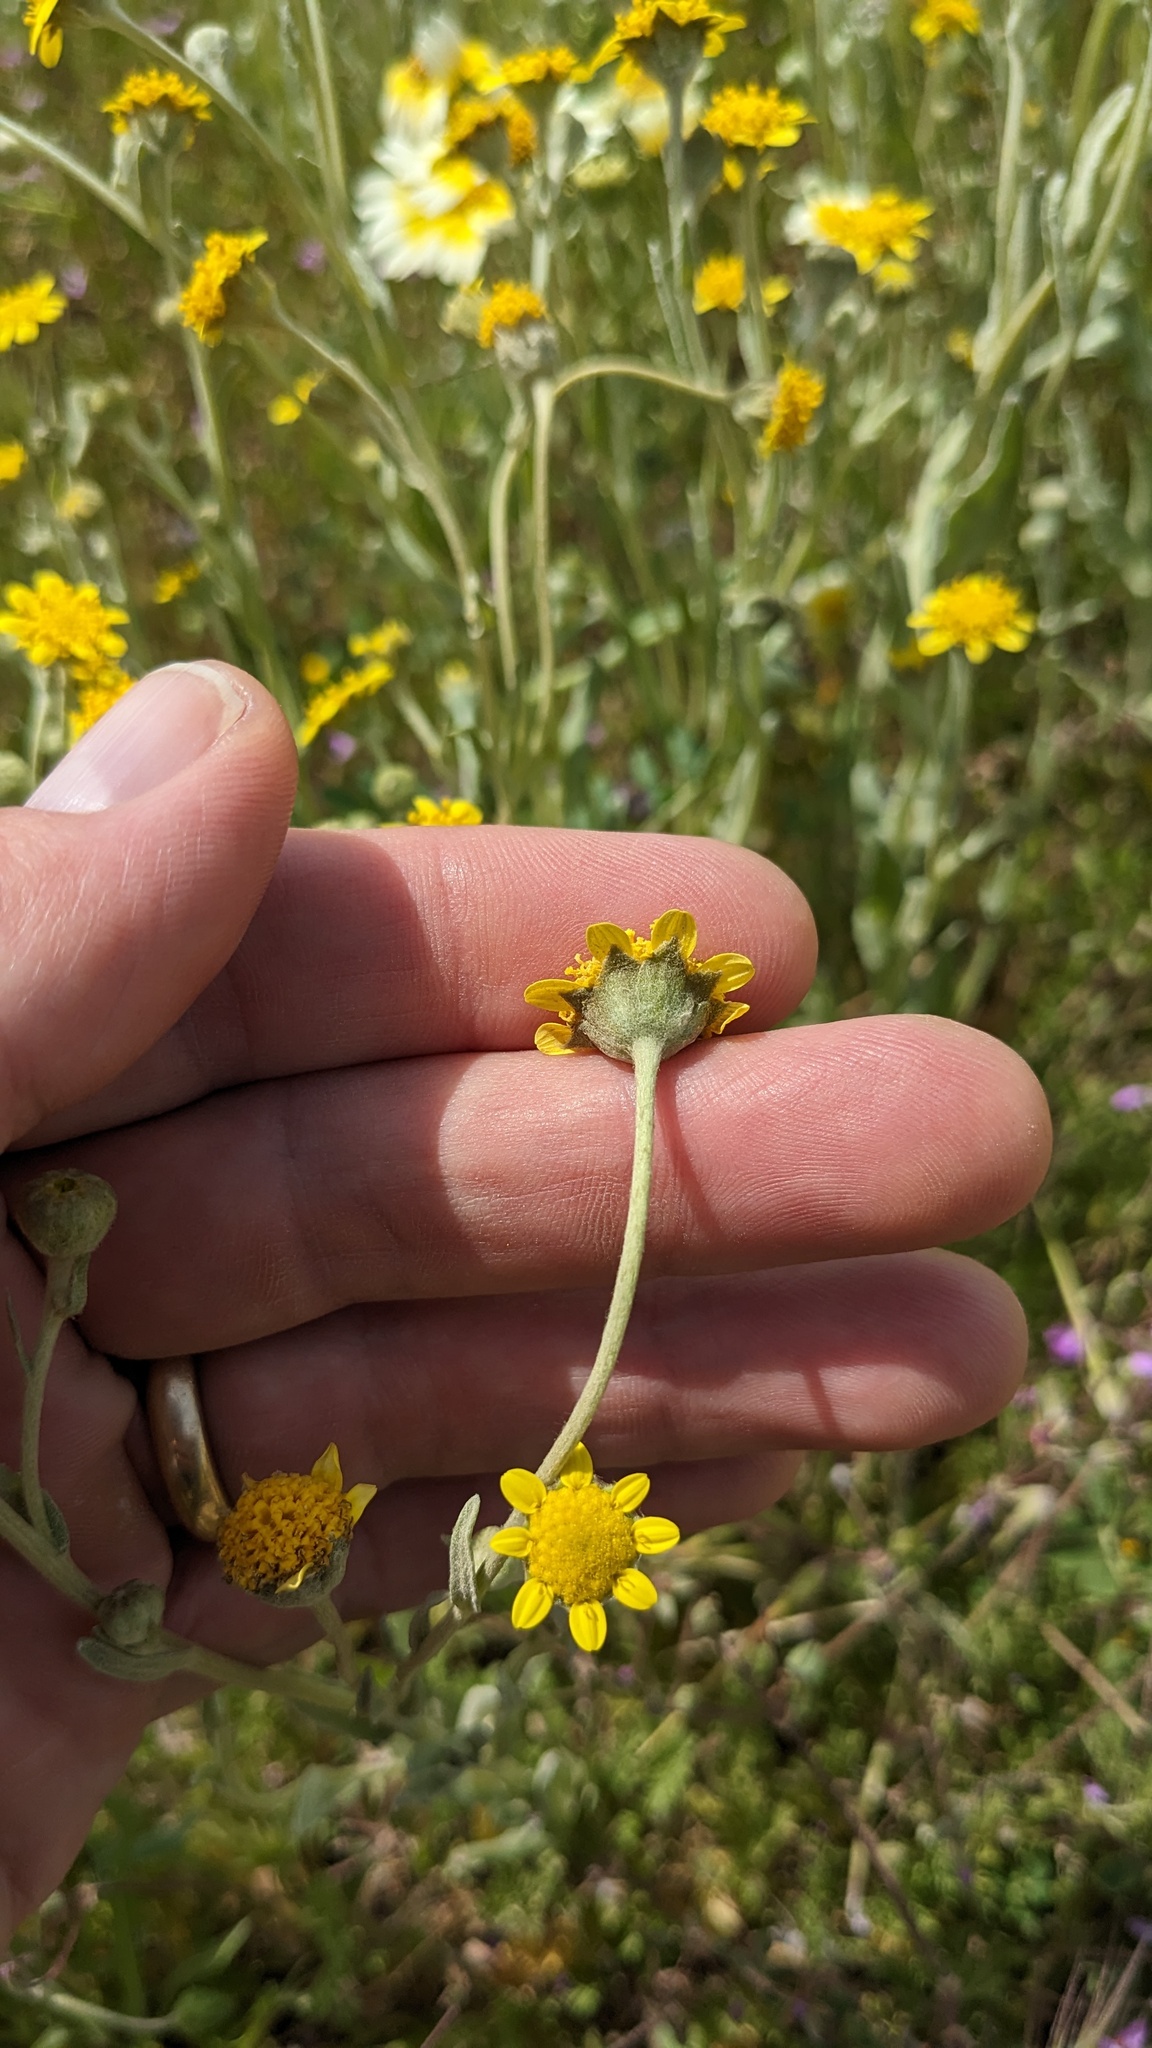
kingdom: Plantae
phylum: Tracheophyta
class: Magnoliopsida
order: Asterales
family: Asteraceae
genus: Monolopia
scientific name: Monolopia stricta
